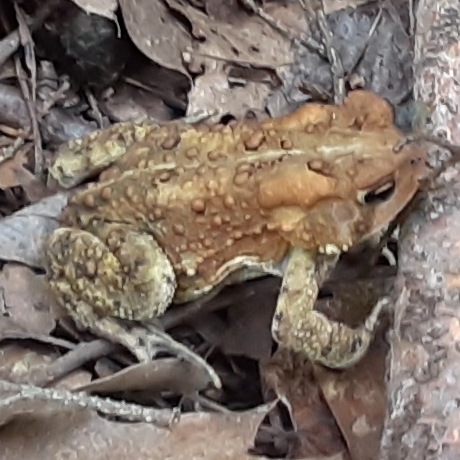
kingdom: Animalia
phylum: Chordata
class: Amphibia
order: Anura
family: Bufonidae
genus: Anaxyrus
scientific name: Anaxyrus americanus
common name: American toad
